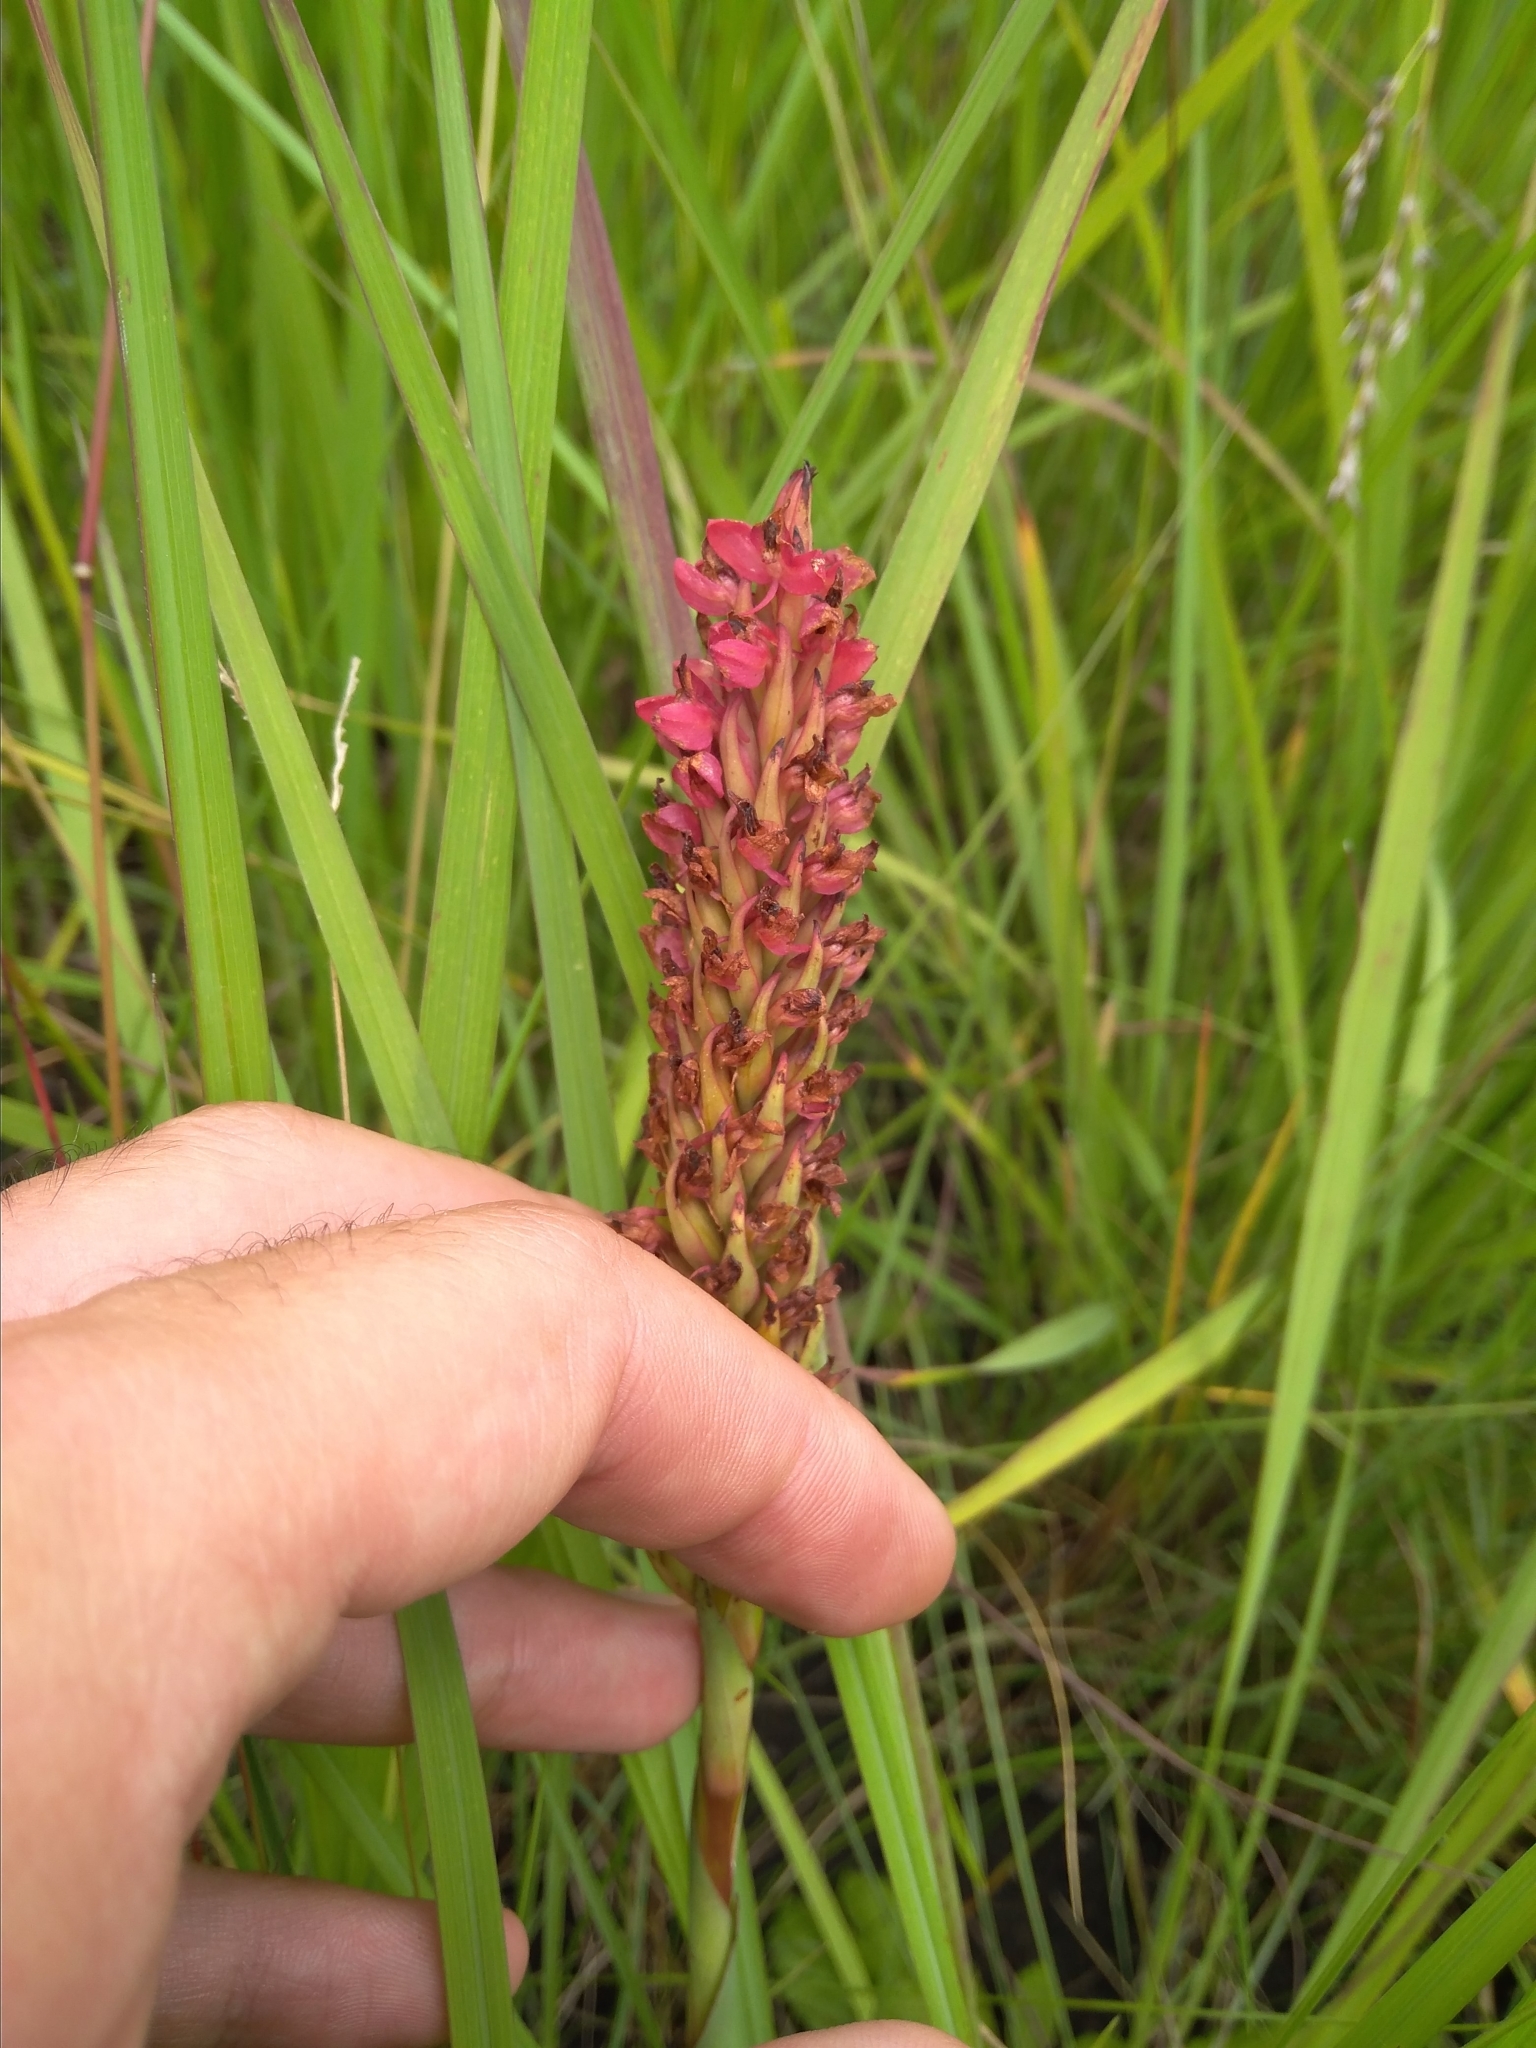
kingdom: Plantae
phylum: Tracheophyta
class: Liliopsida
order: Asparagales
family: Orchidaceae
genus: Disa
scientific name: Disa welwitschii
